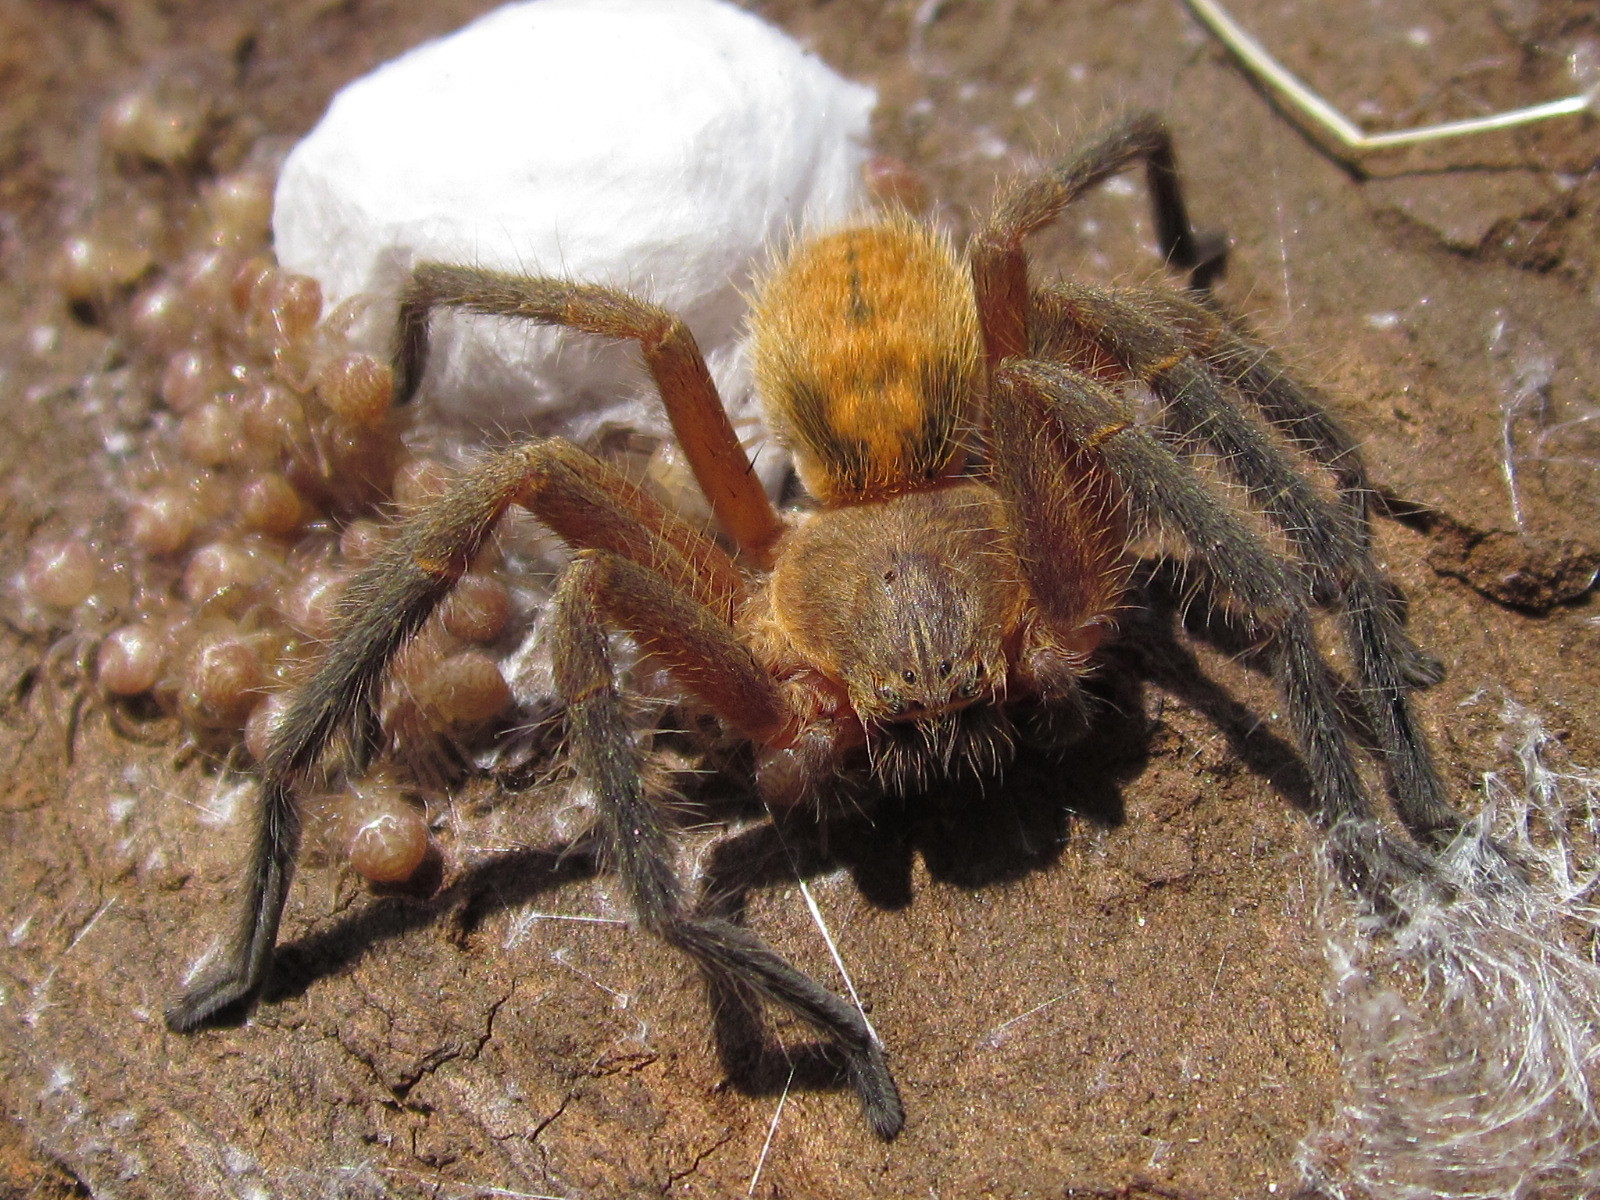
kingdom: Animalia
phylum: Arthropoda
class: Arachnida
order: Araneae
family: Sparassidae
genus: Polybetes
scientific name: Polybetes martius
